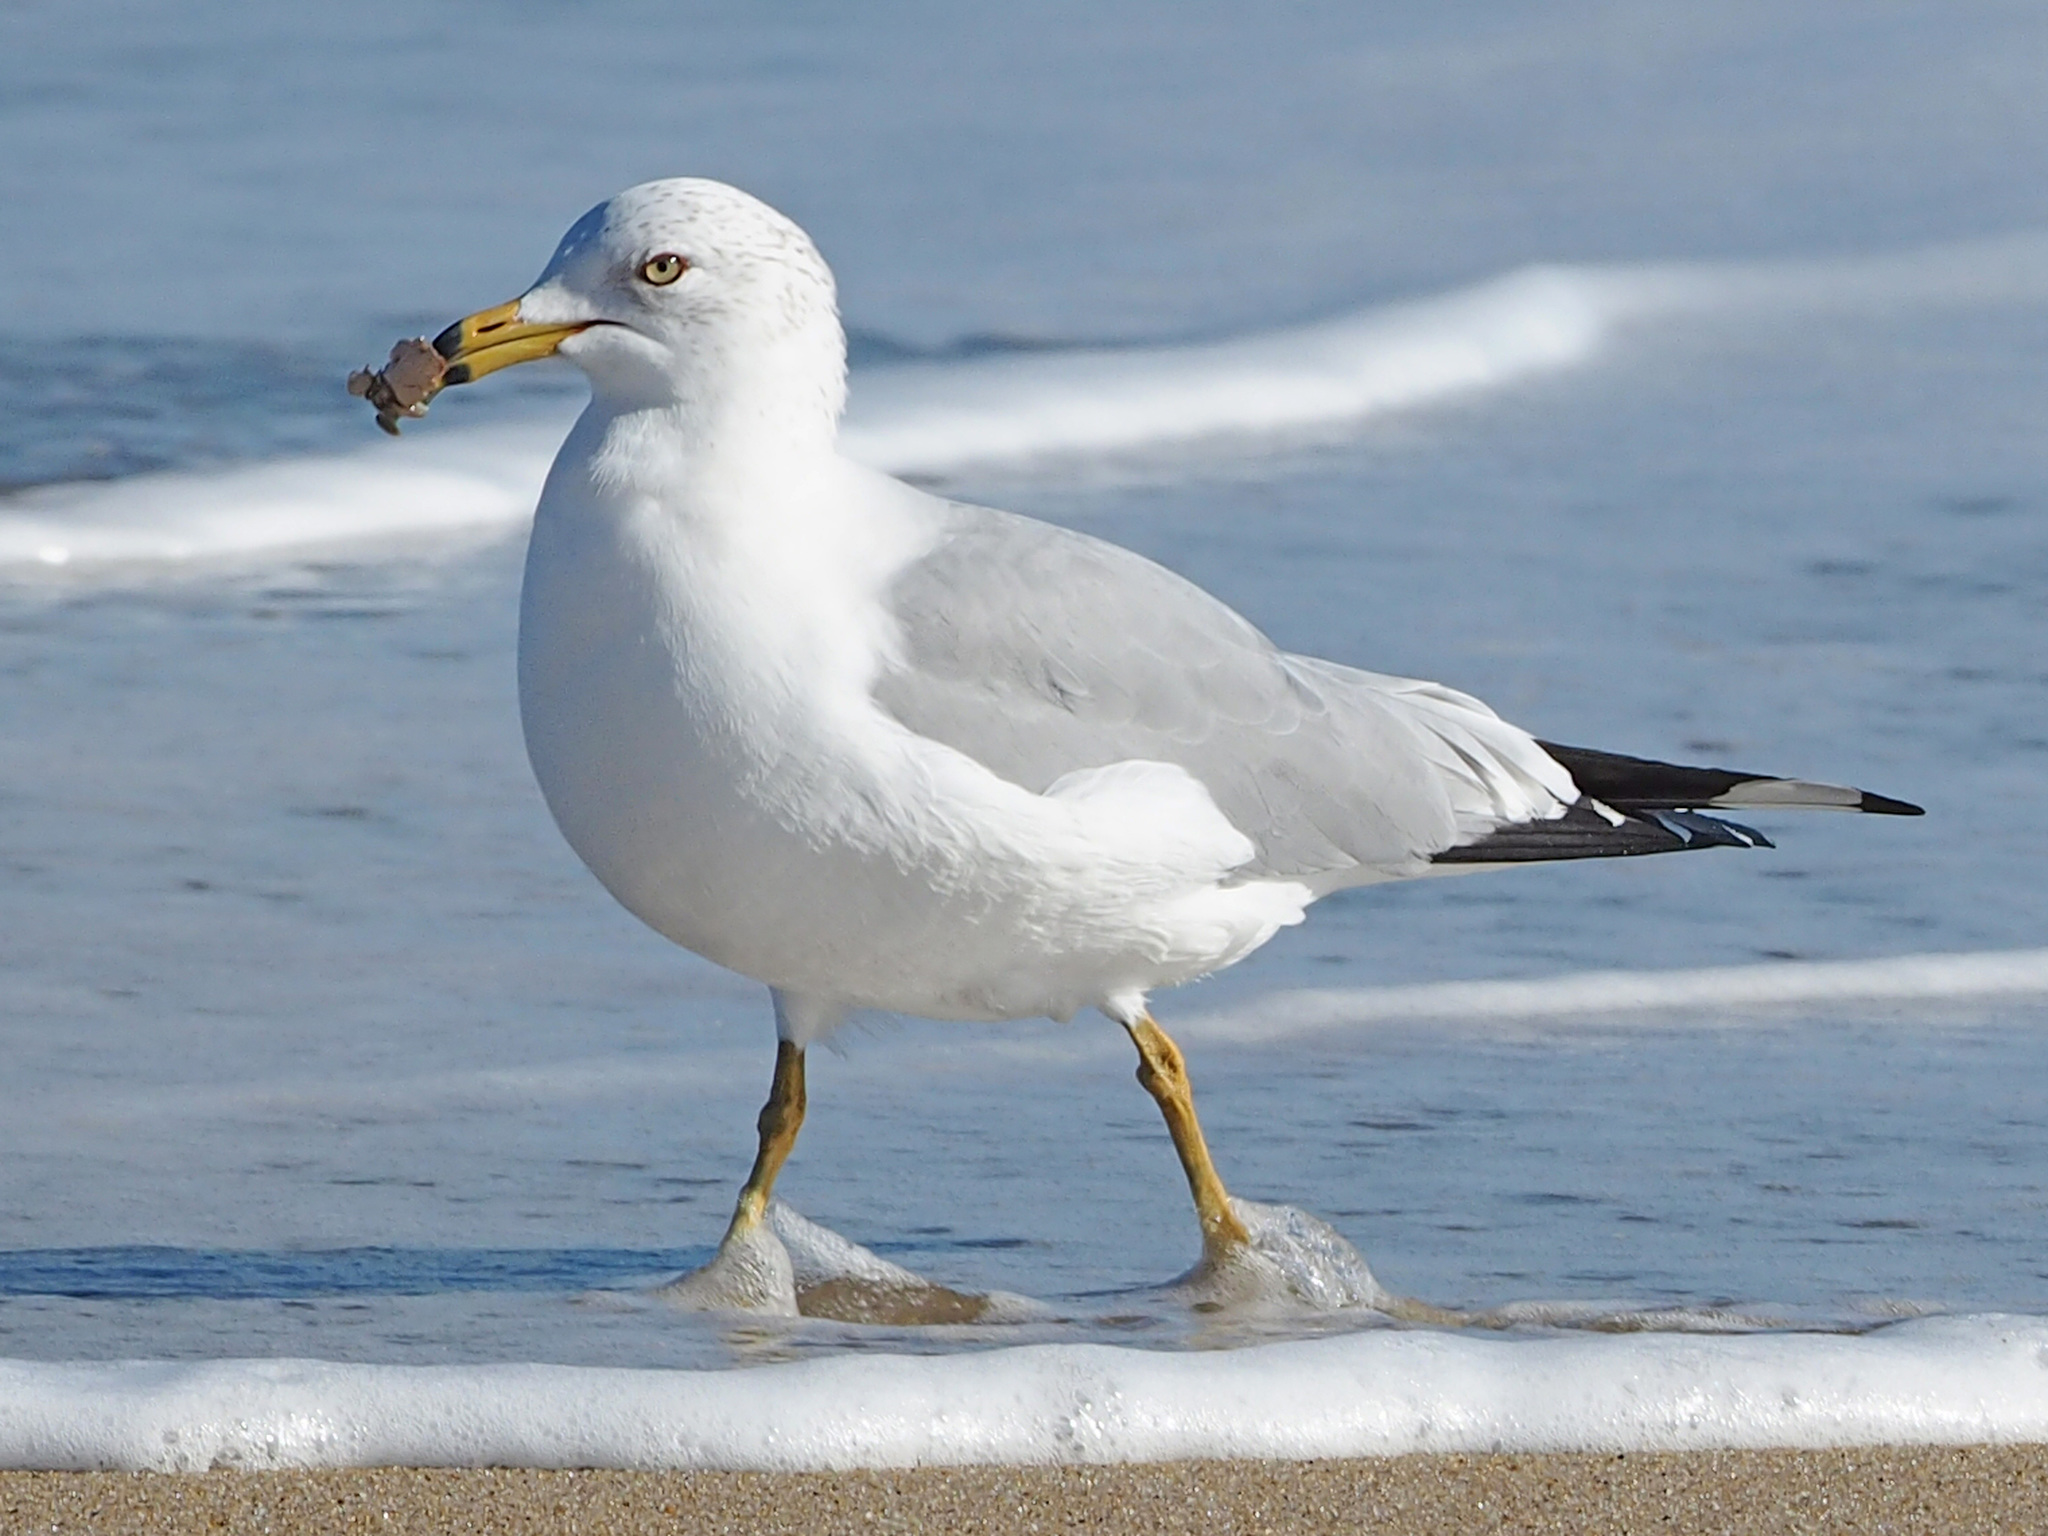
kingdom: Animalia
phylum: Chordata
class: Aves
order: Charadriiformes
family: Laridae
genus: Larus
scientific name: Larus delawarensis
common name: Ring-billed gull
